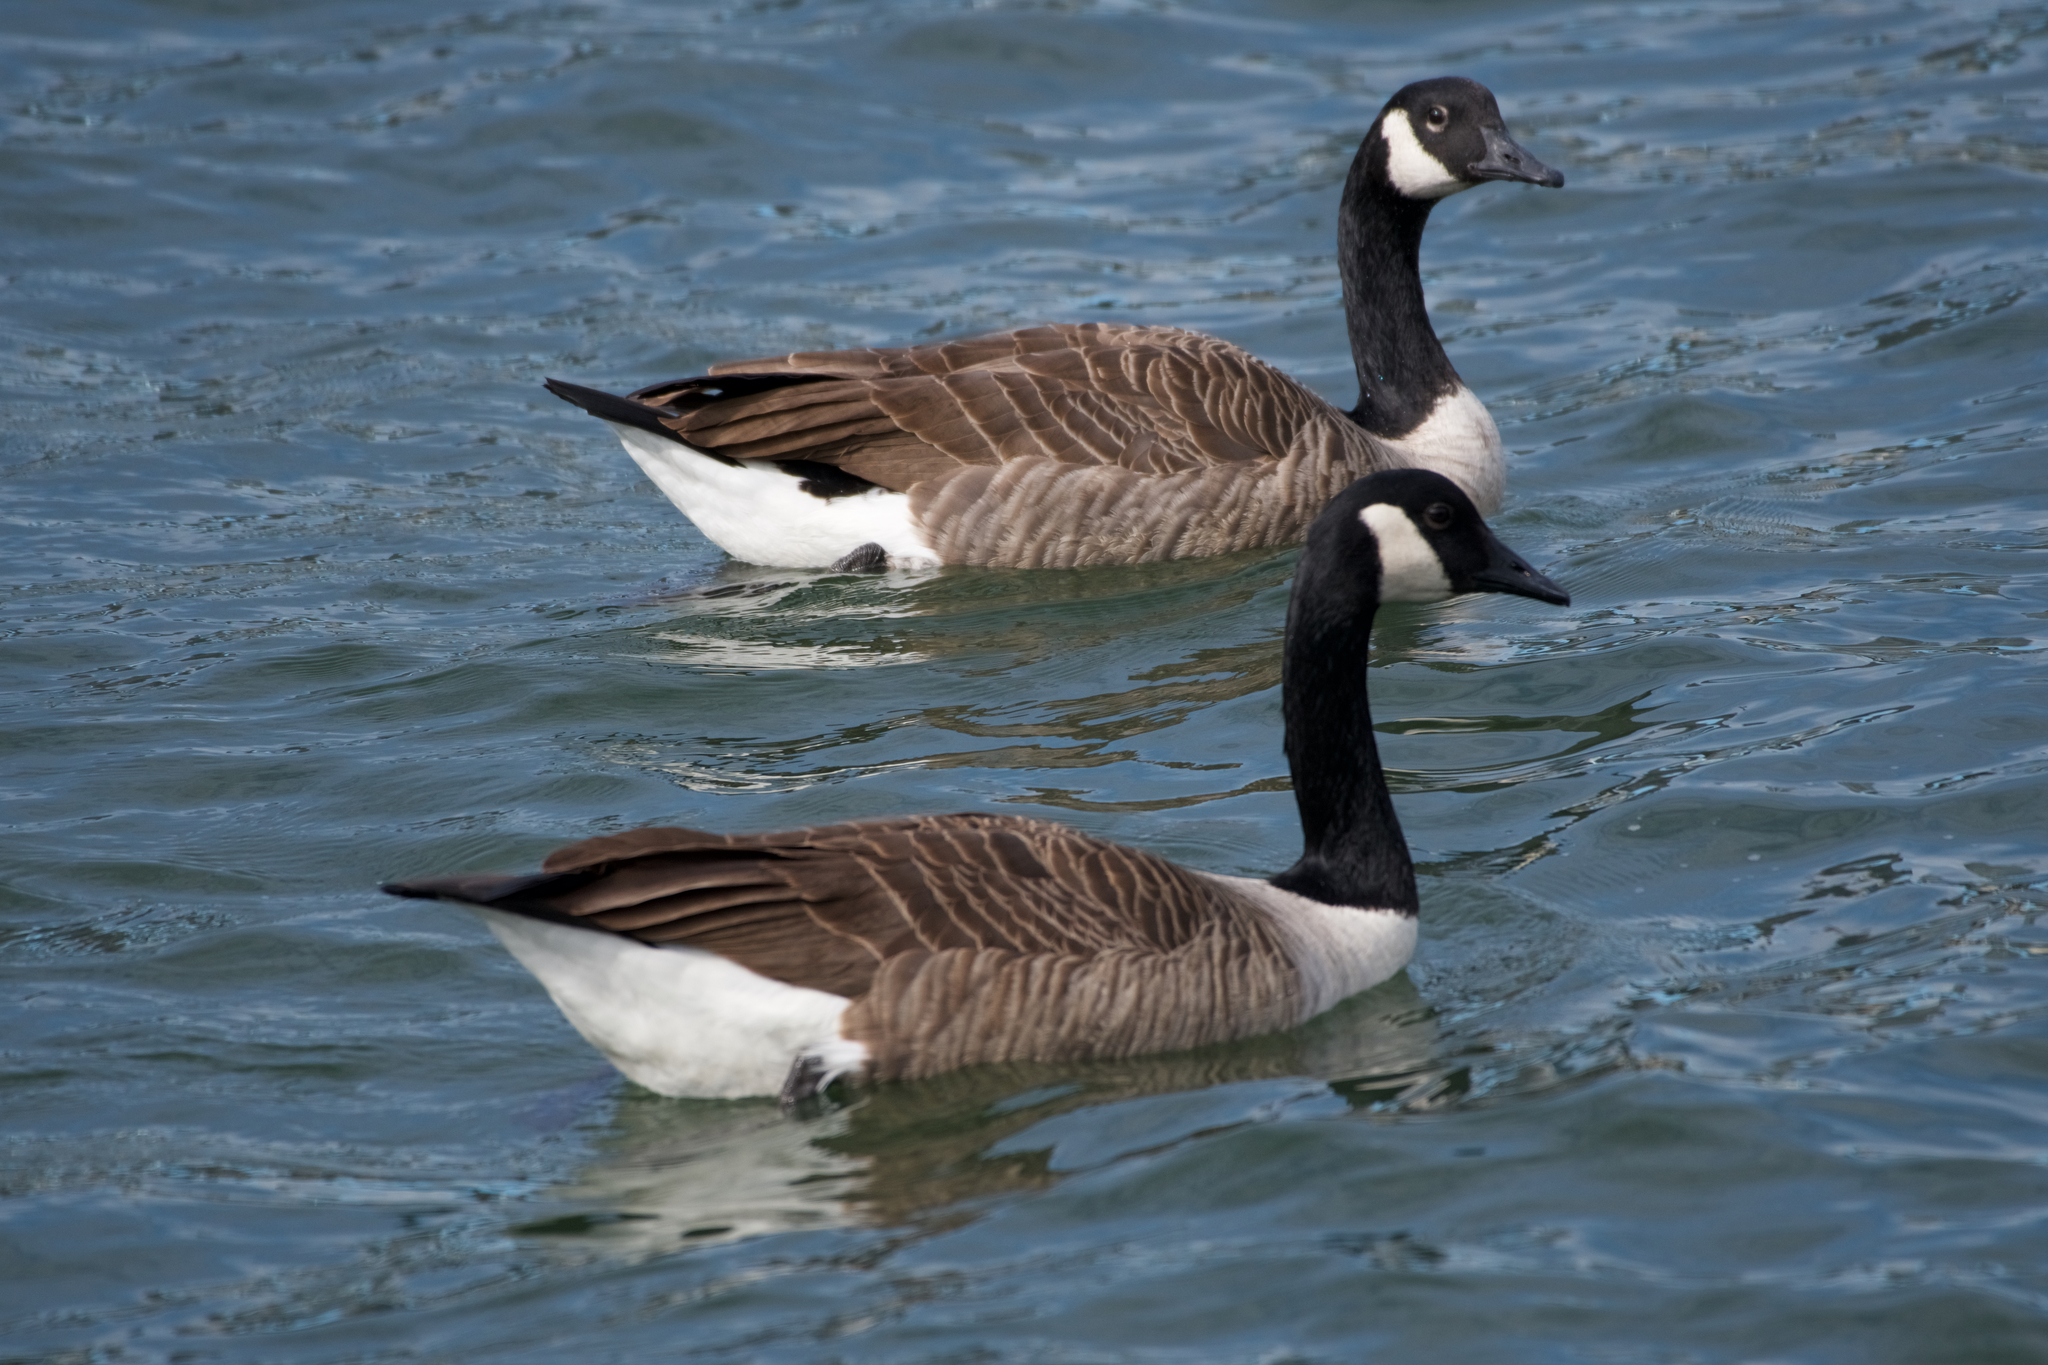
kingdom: Animalia
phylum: Chordata
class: Aves
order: Anseriformes
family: Anatidae
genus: Branta
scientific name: Branta canadensis
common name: Canada goose
